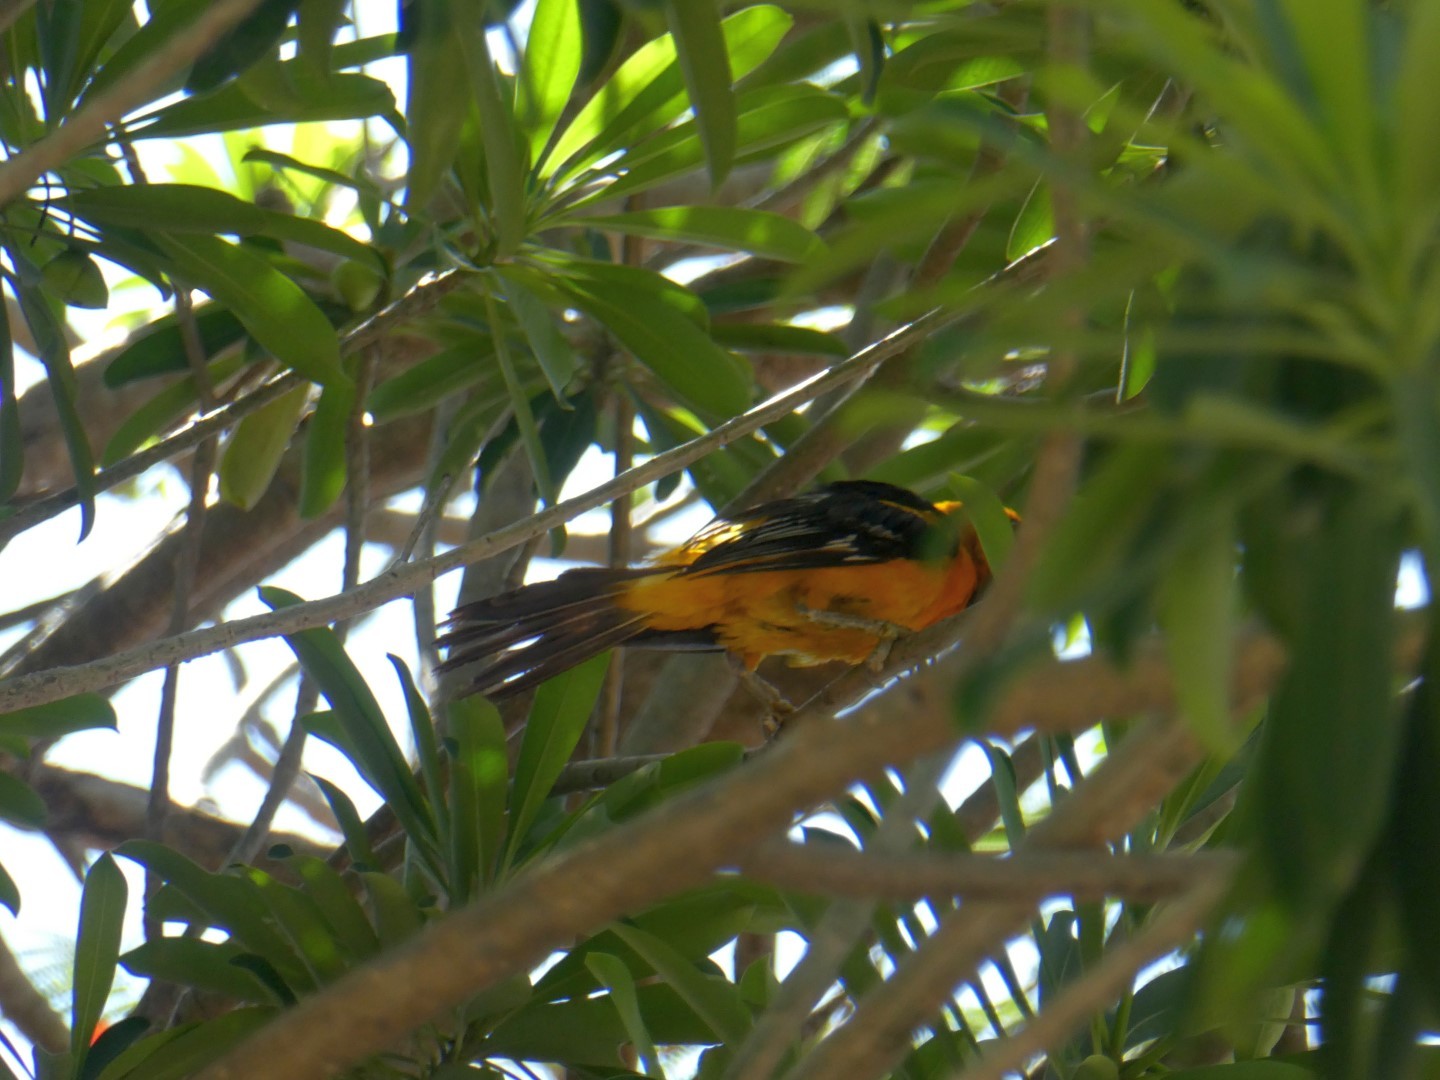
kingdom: Animalia
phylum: Chordata
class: Aves
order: Passeriformes
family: Icteridae
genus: Icterus
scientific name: Icterus gularis
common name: Altamira oriole
